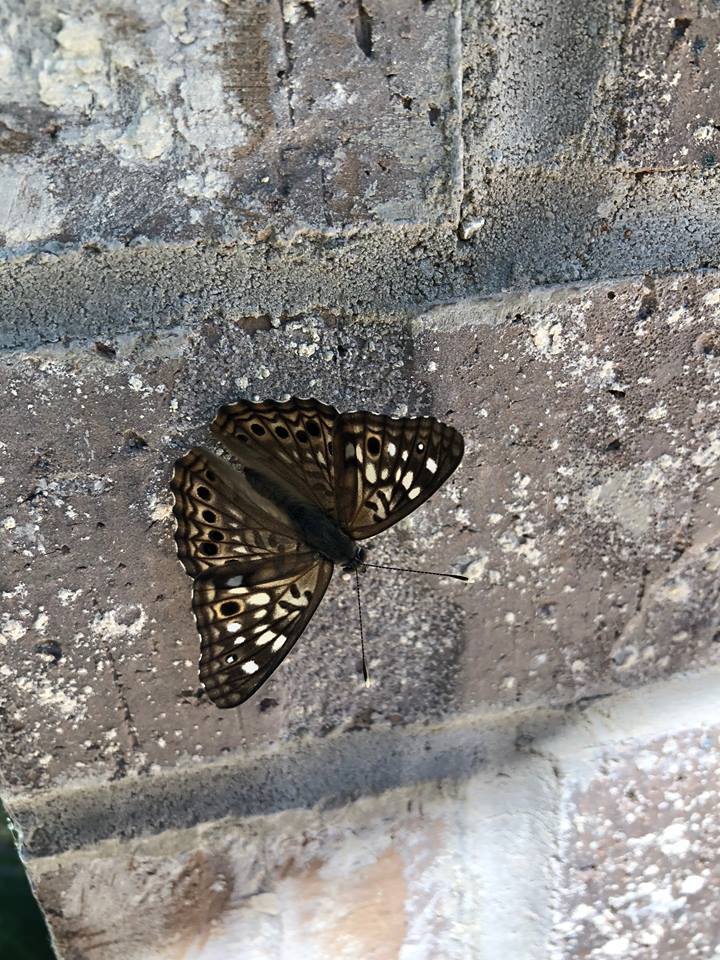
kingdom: Animalia
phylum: Arthropoda
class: Insecta
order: Lepidoptera
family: Nymphalidae
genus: Asterocampa
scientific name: Asterocampa celtis
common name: Hackberry emperor
